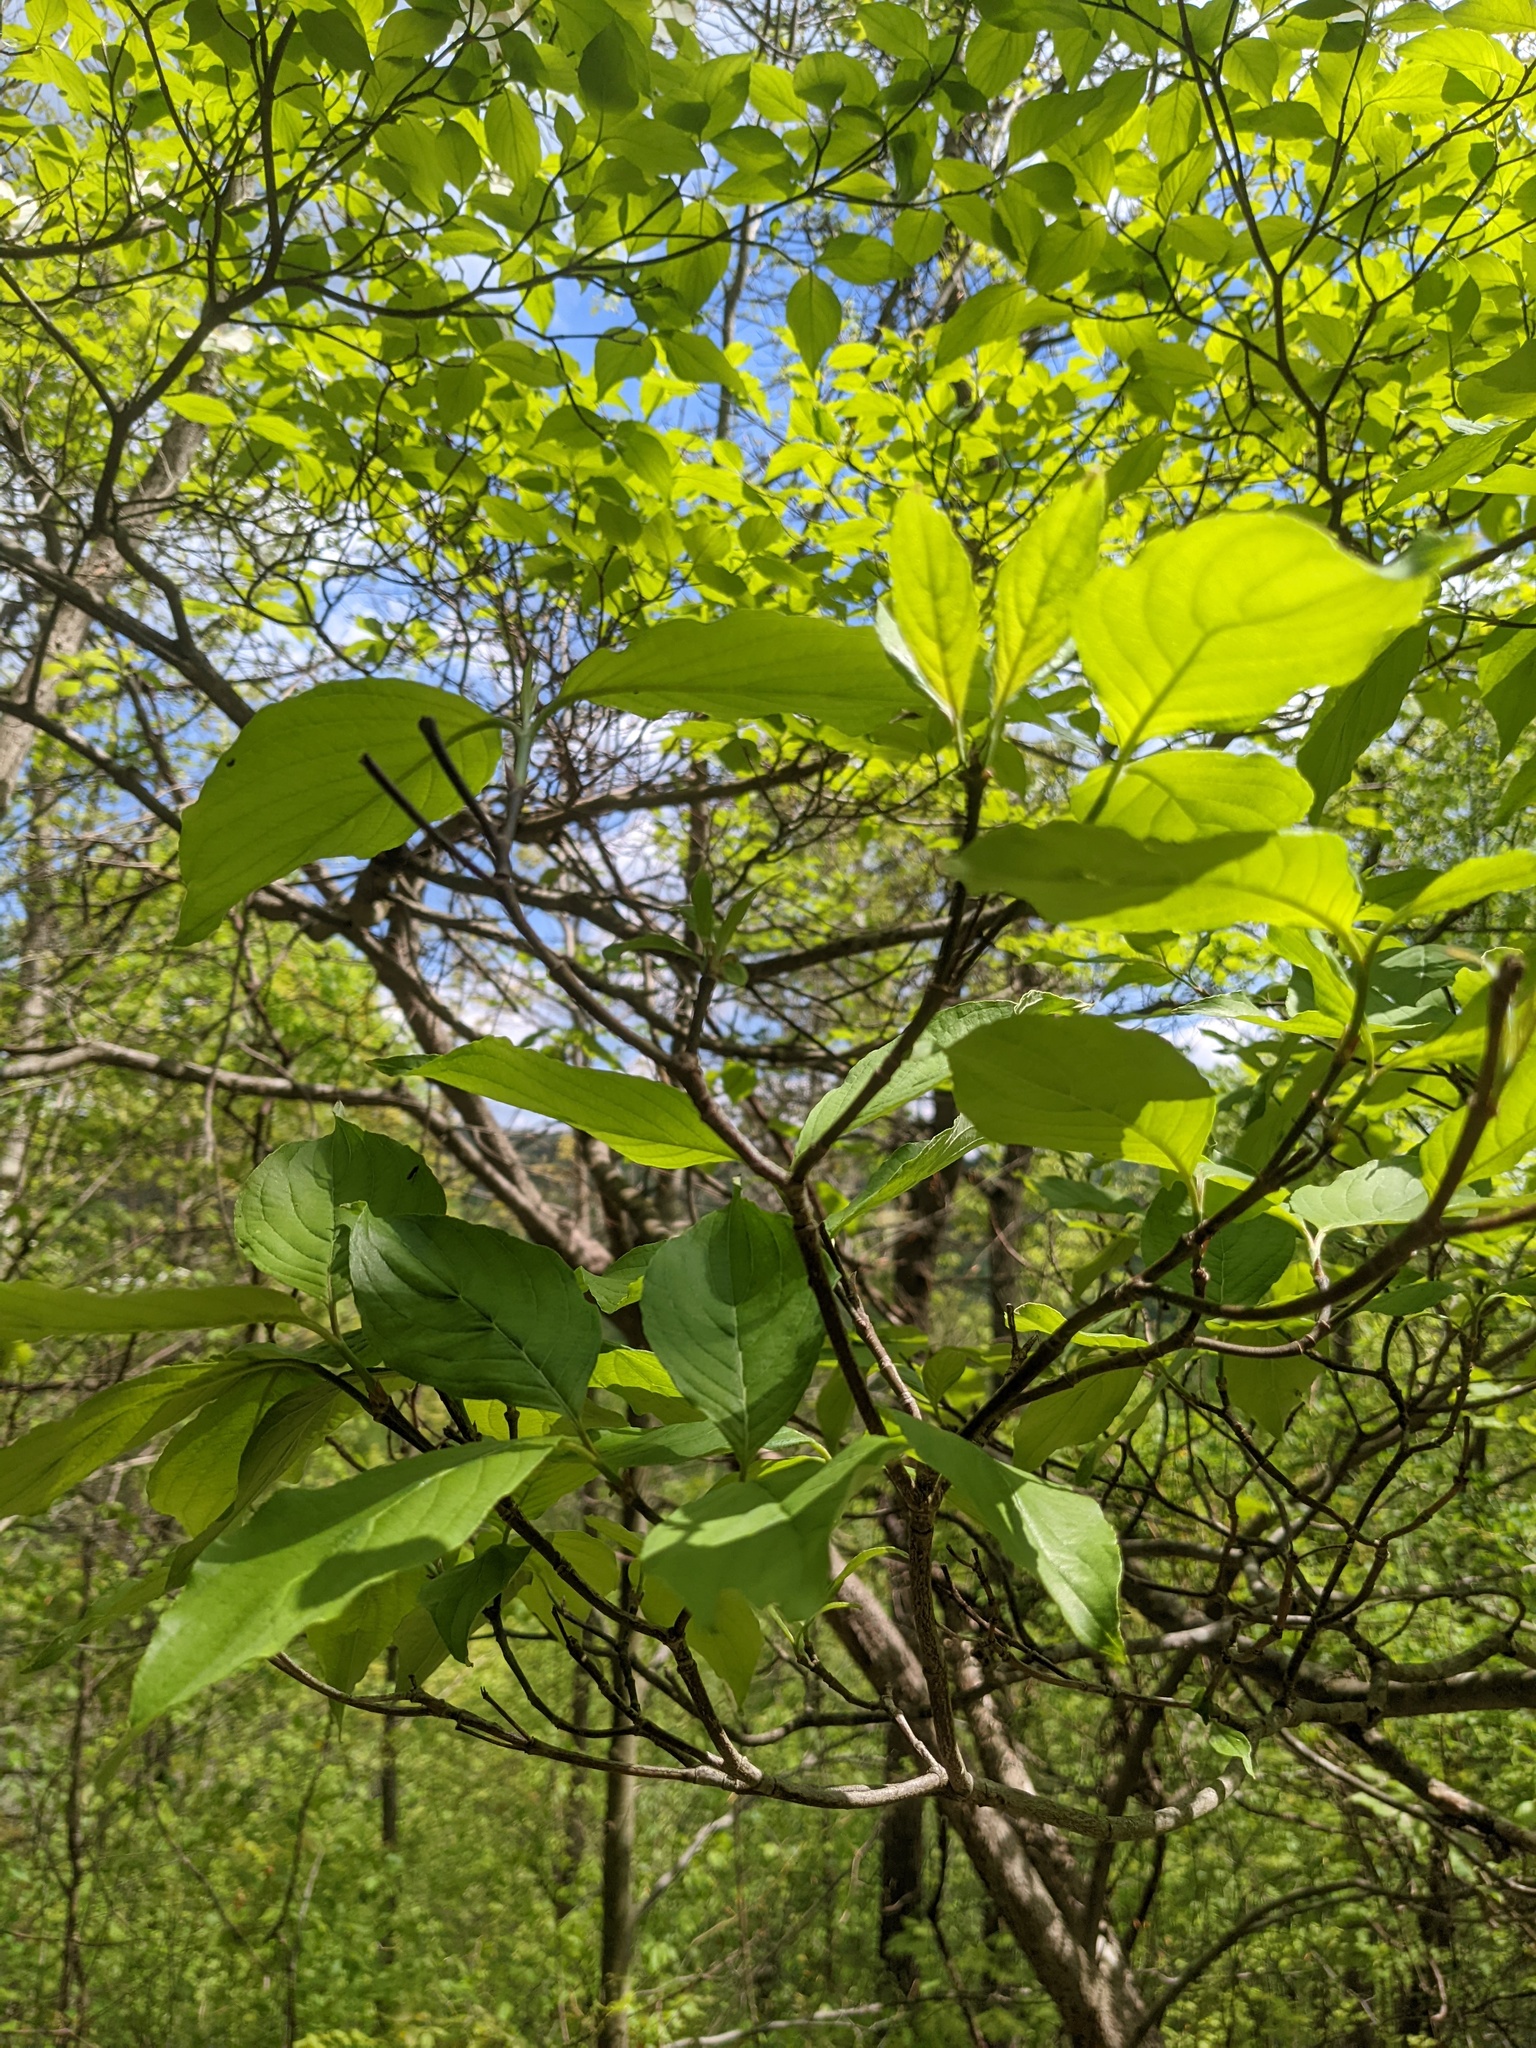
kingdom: Plantae
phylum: Tracheophyta
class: Magnoliopsida
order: Cornales
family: Cornaceae
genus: Cornus
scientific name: Cornus florida
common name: Flowering dogwood
